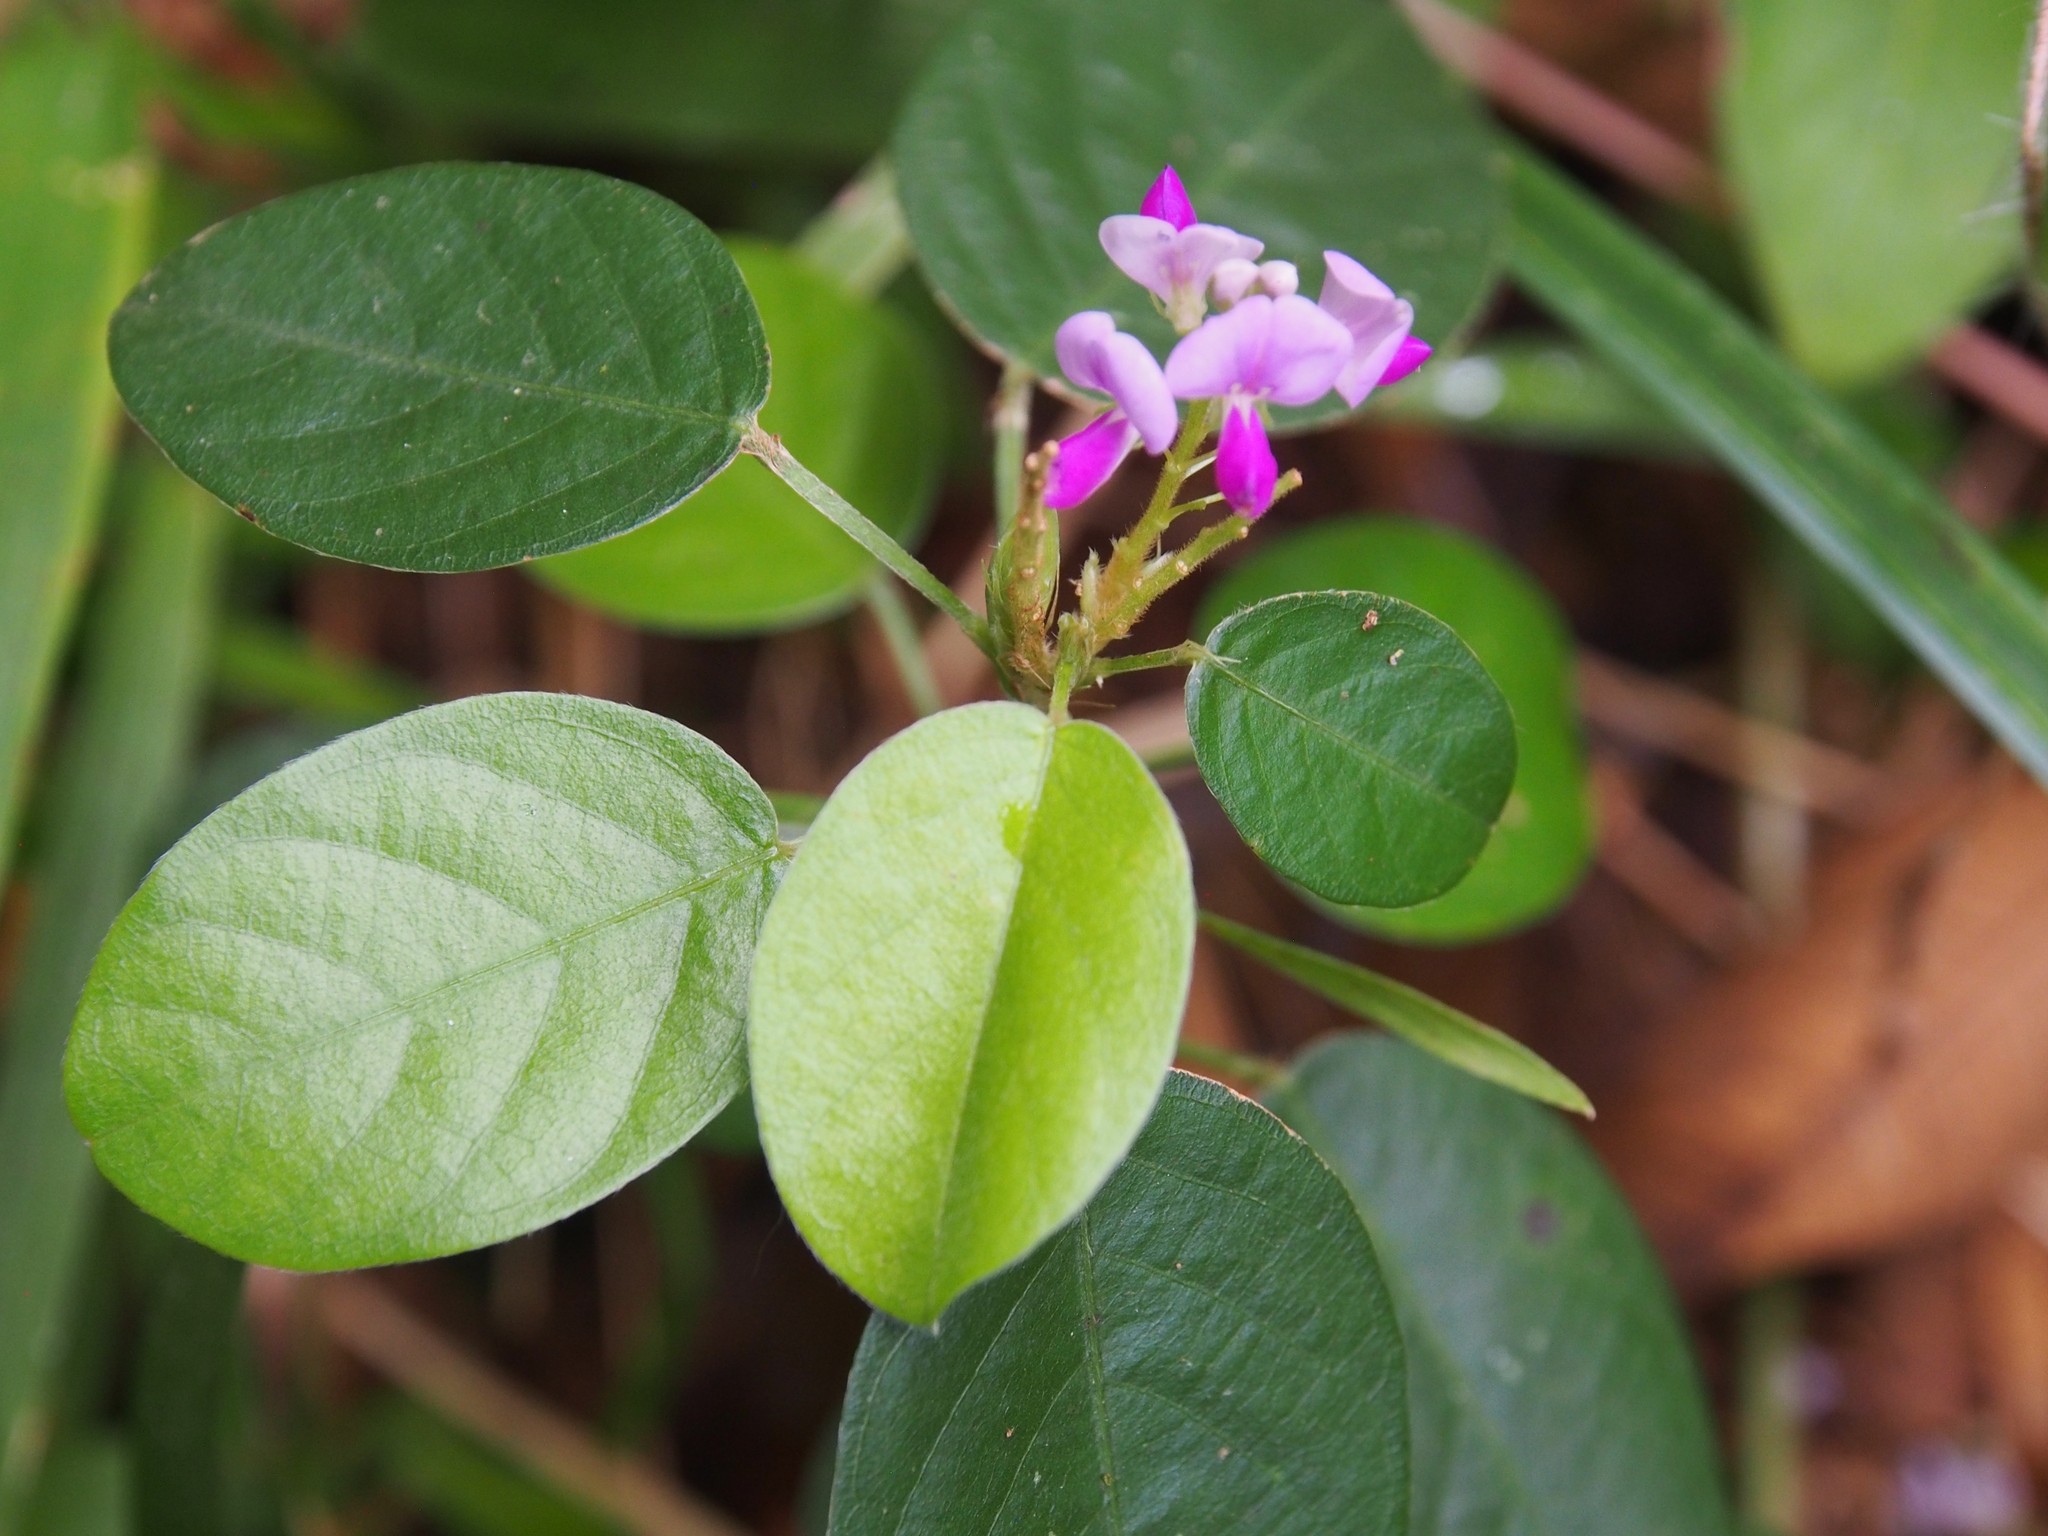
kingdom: Plantae
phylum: Tracheophyta
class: Magnoliopsida
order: Fabales
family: Fabaceae
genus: Grona
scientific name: Grona heterocarpos
